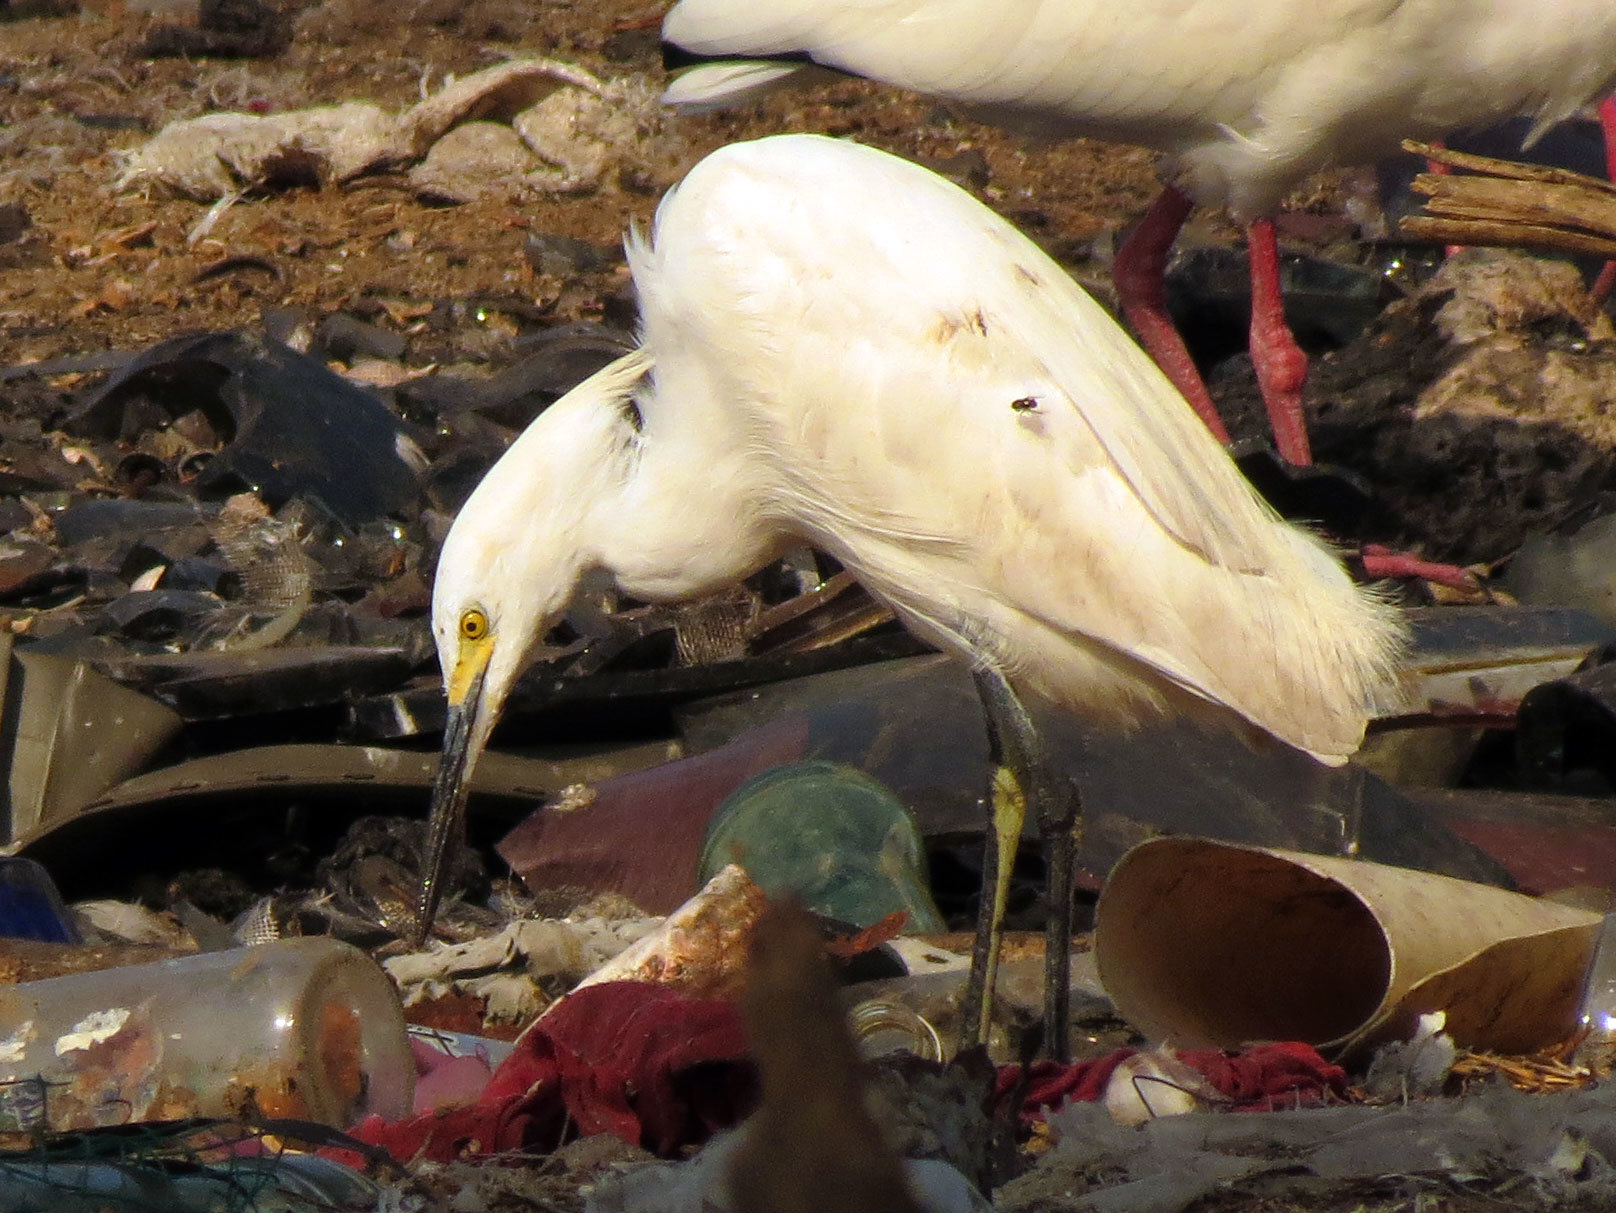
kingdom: Animalia
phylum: Chordata
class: Aves
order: Pelecaniformes
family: Ardeidae
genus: Egretta
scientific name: Egretta thula
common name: Snowy egret
